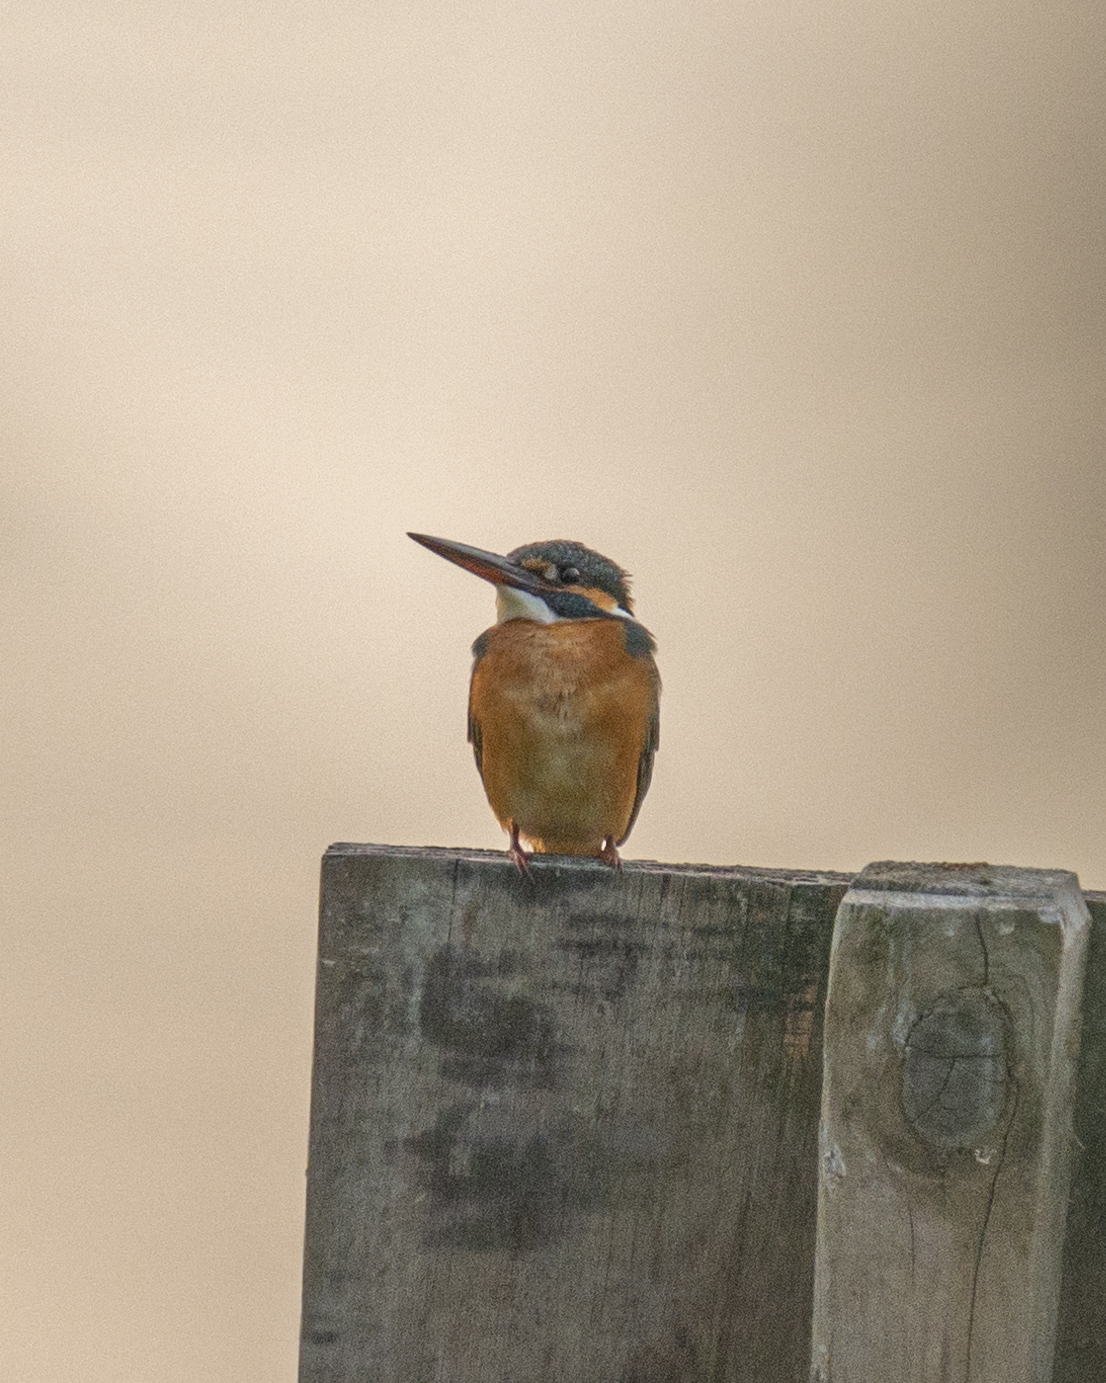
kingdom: Animalia
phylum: Chordata
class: Aves
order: Coraciiformes
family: Alcedinidae
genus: Alcedo
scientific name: Alcedo atthis
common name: Common kingfisher
